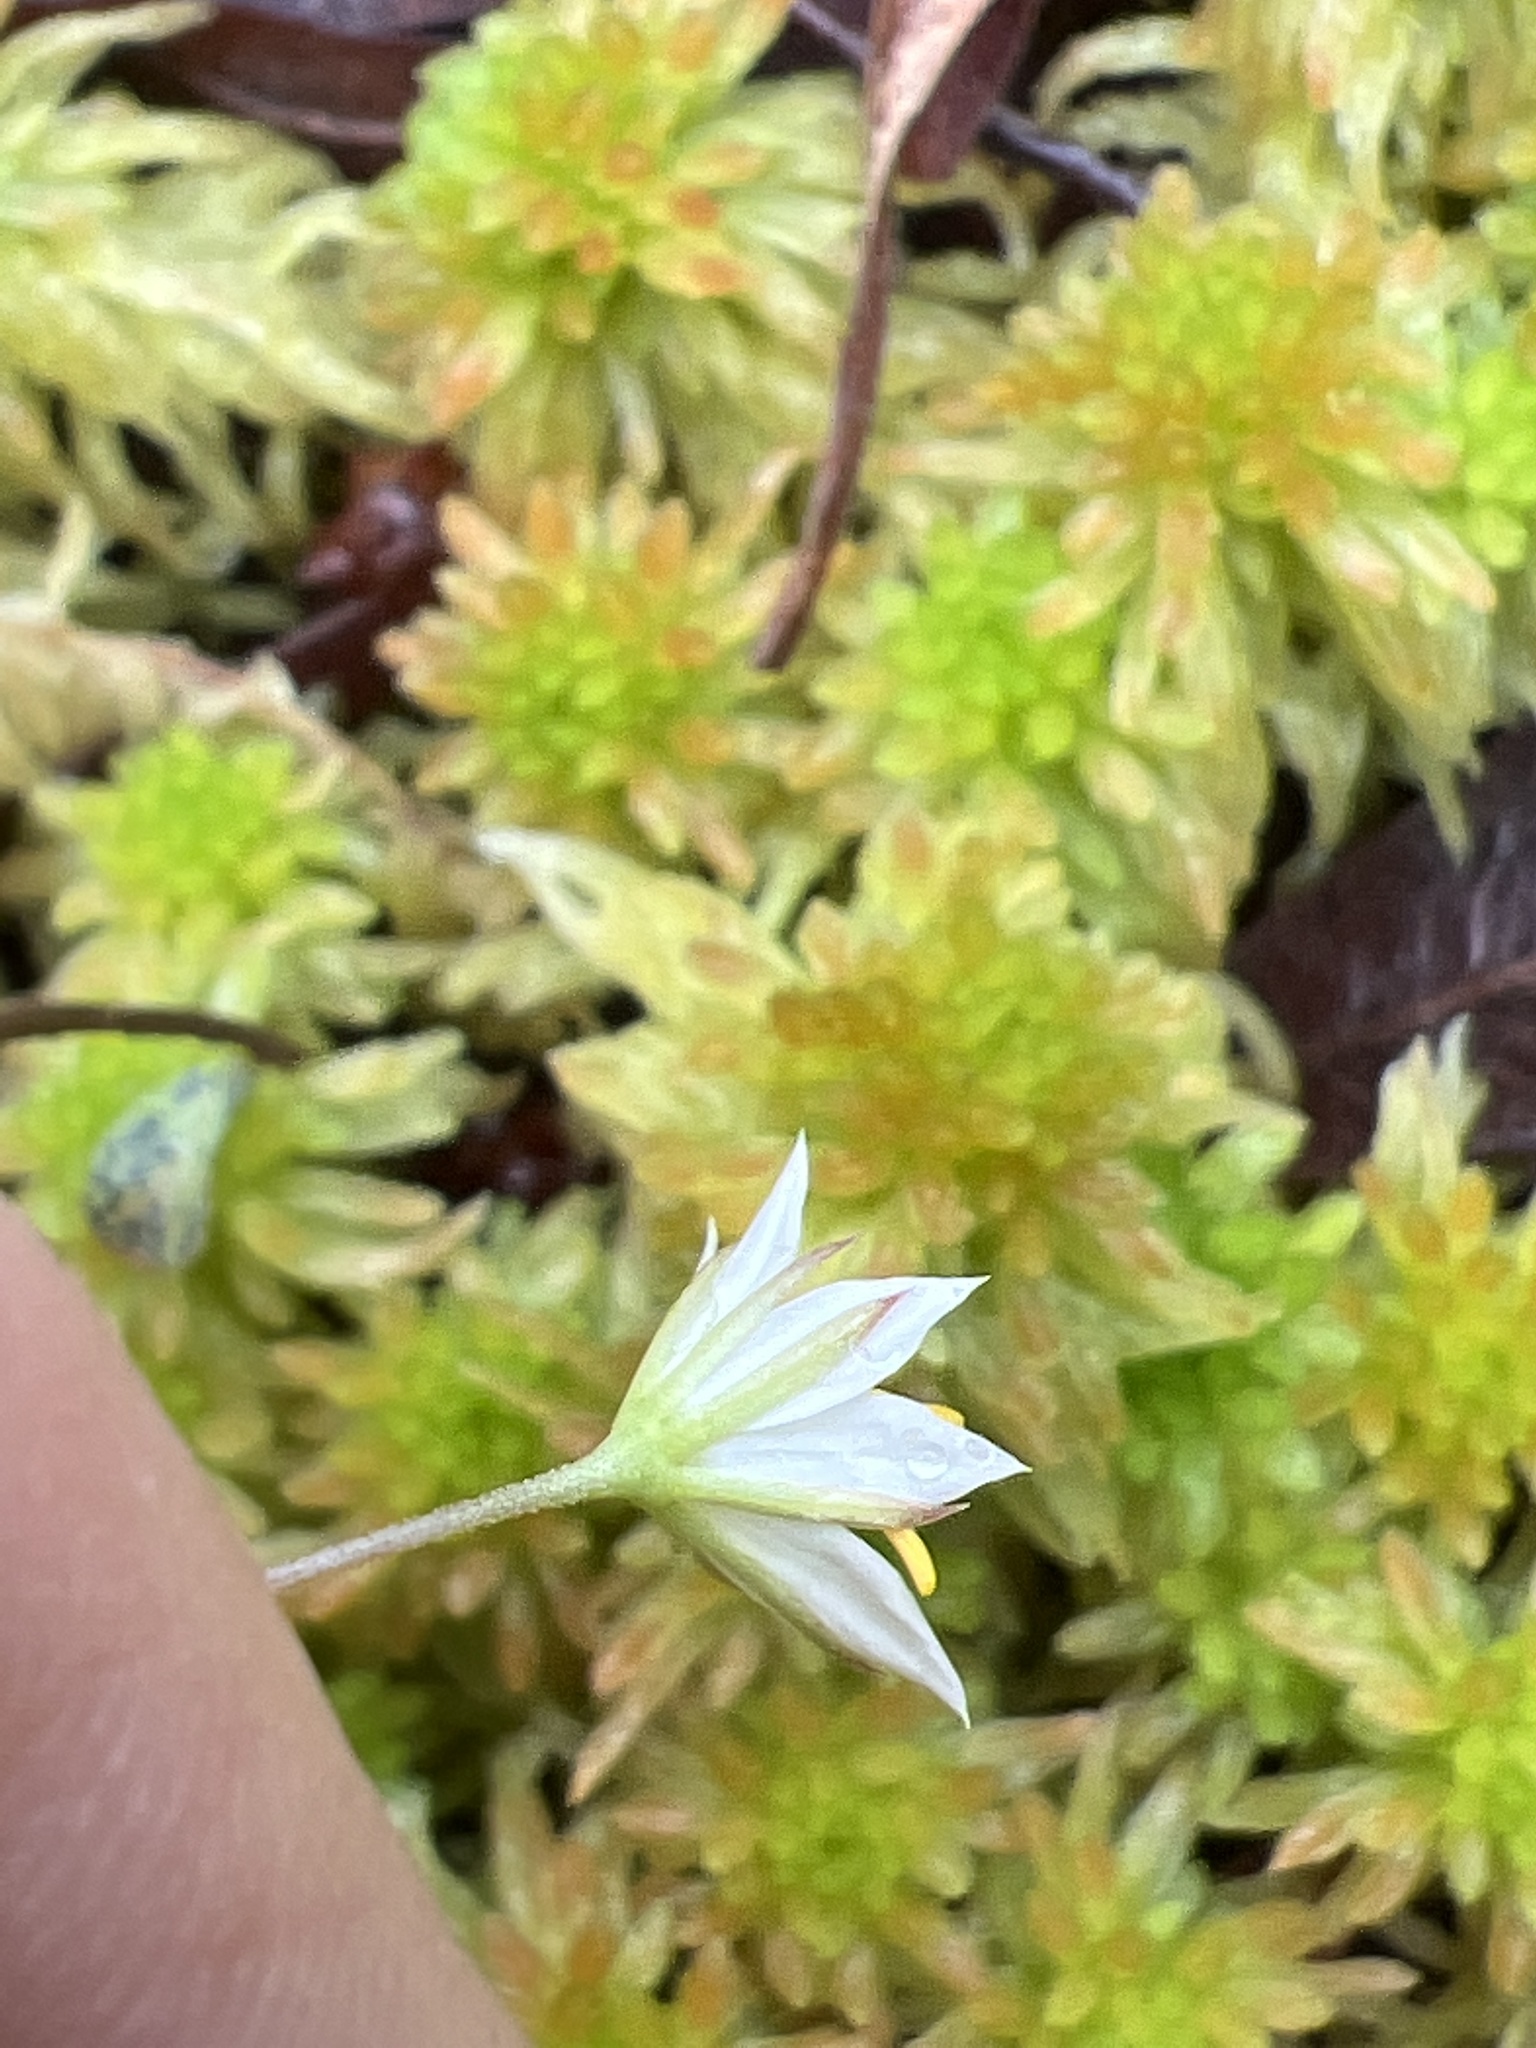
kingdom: Plantae
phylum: Tracheophyta
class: Magnoliopsida
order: Ericales
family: Primulaceae
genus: Lysimachia
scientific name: Lysimachia europaea
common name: Arctic starflower
